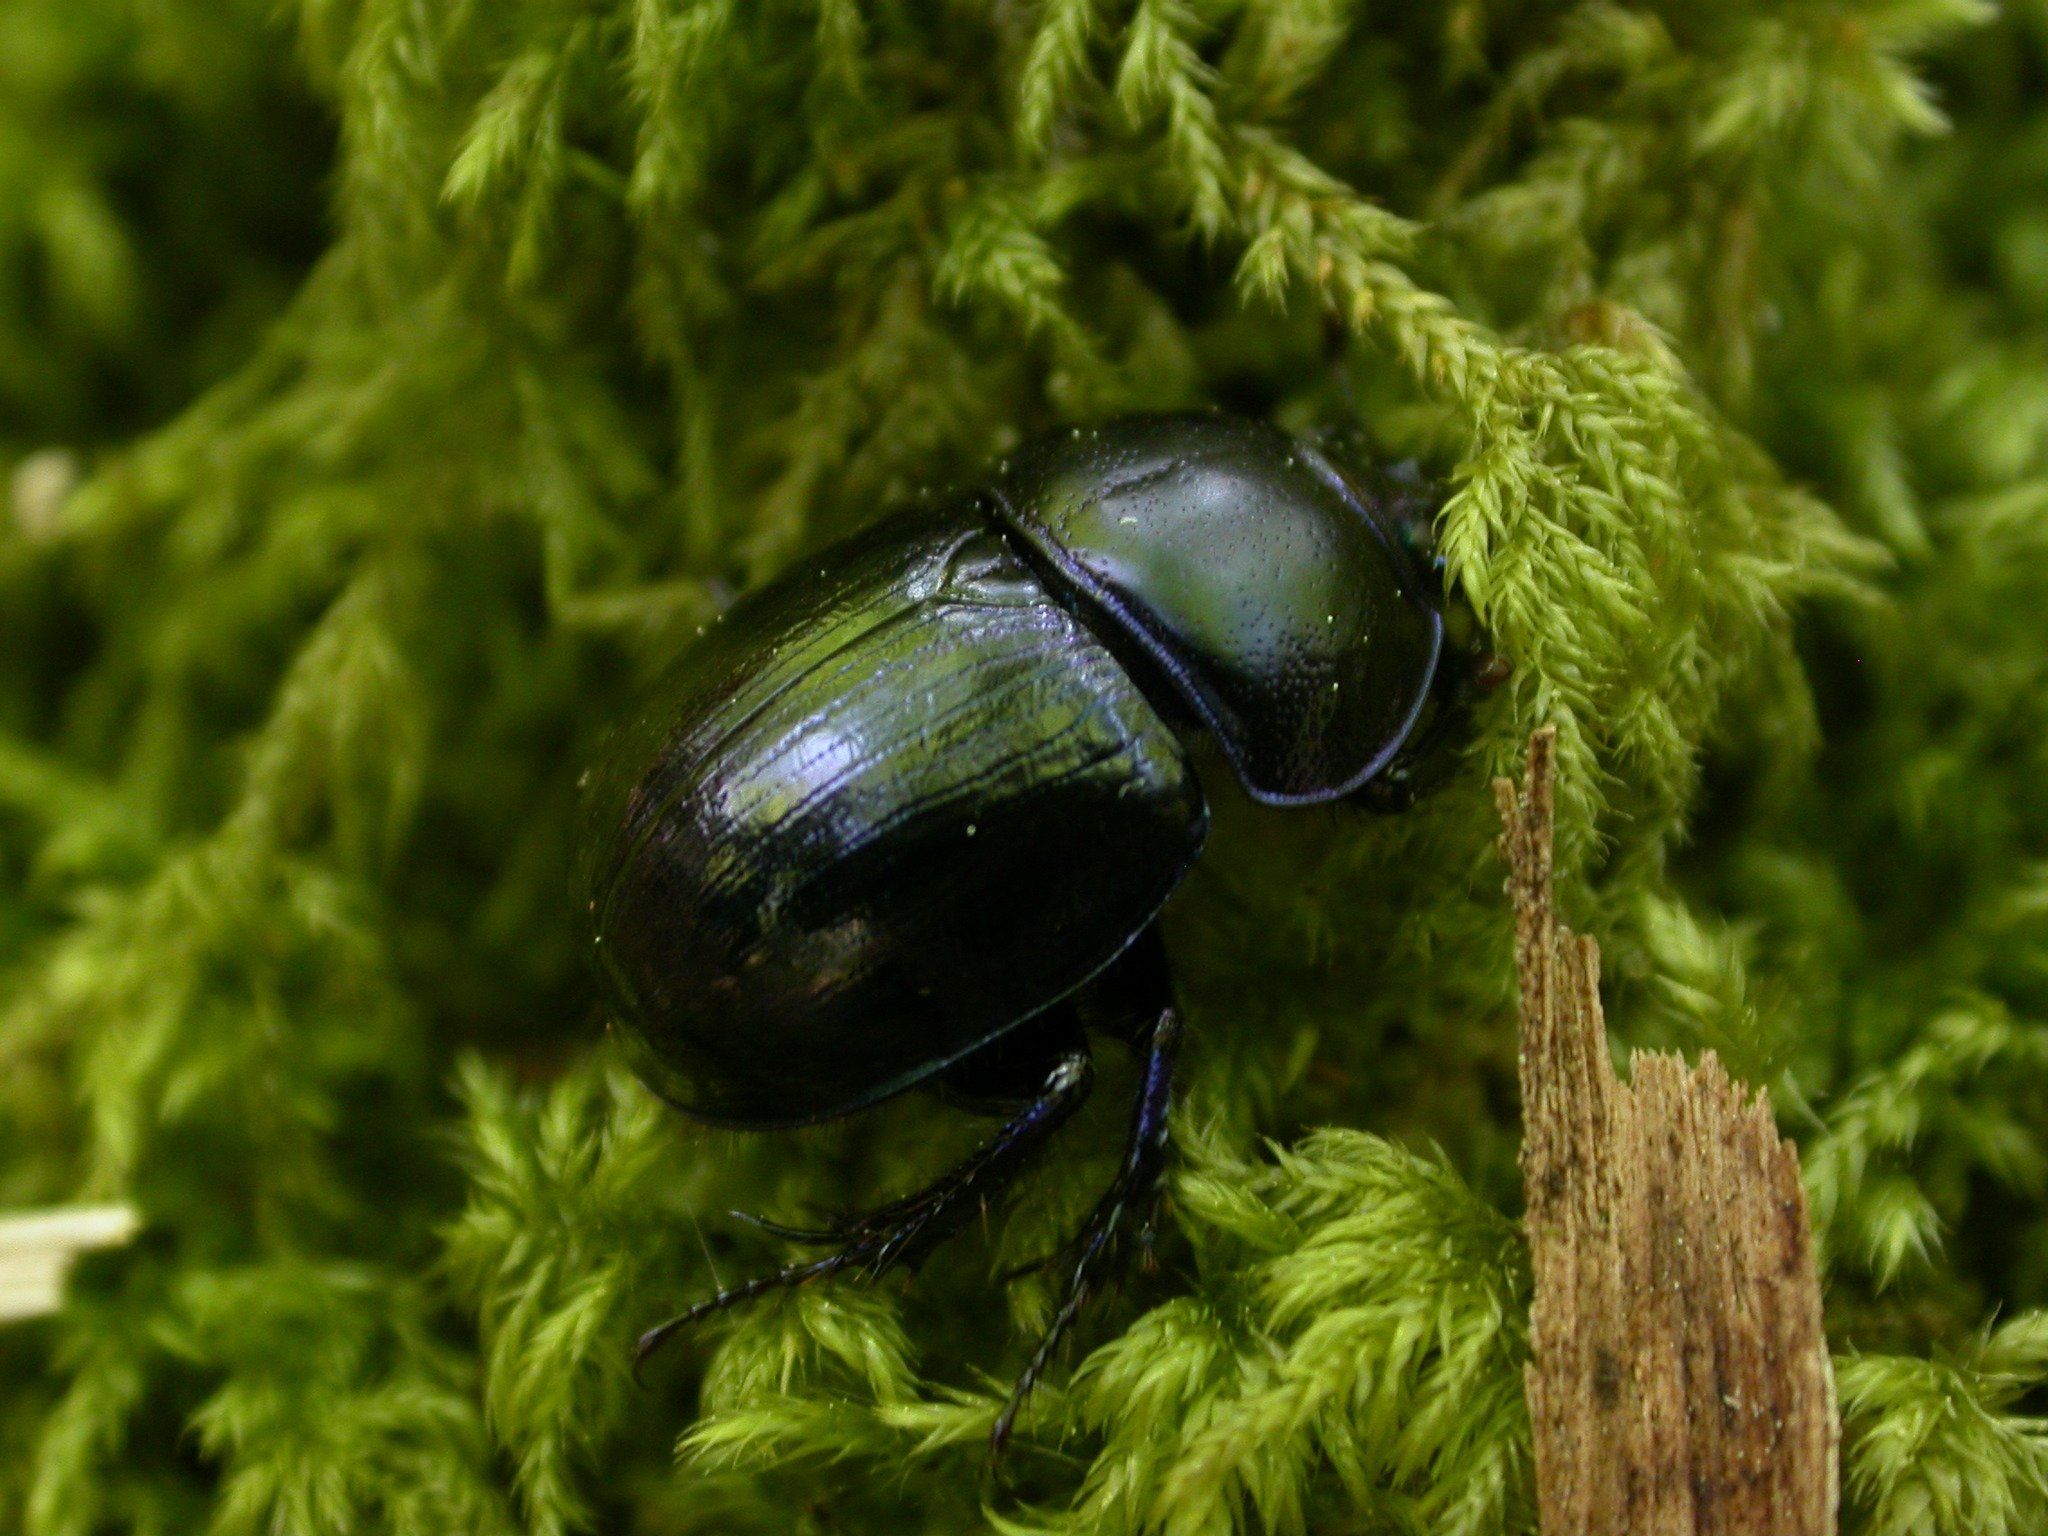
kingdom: Animalia
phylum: Arthropoda
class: Insecta
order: Coleoptera
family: Geotrupidae
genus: Anoplotrupes
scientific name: Anoplotrupes stercorosus
